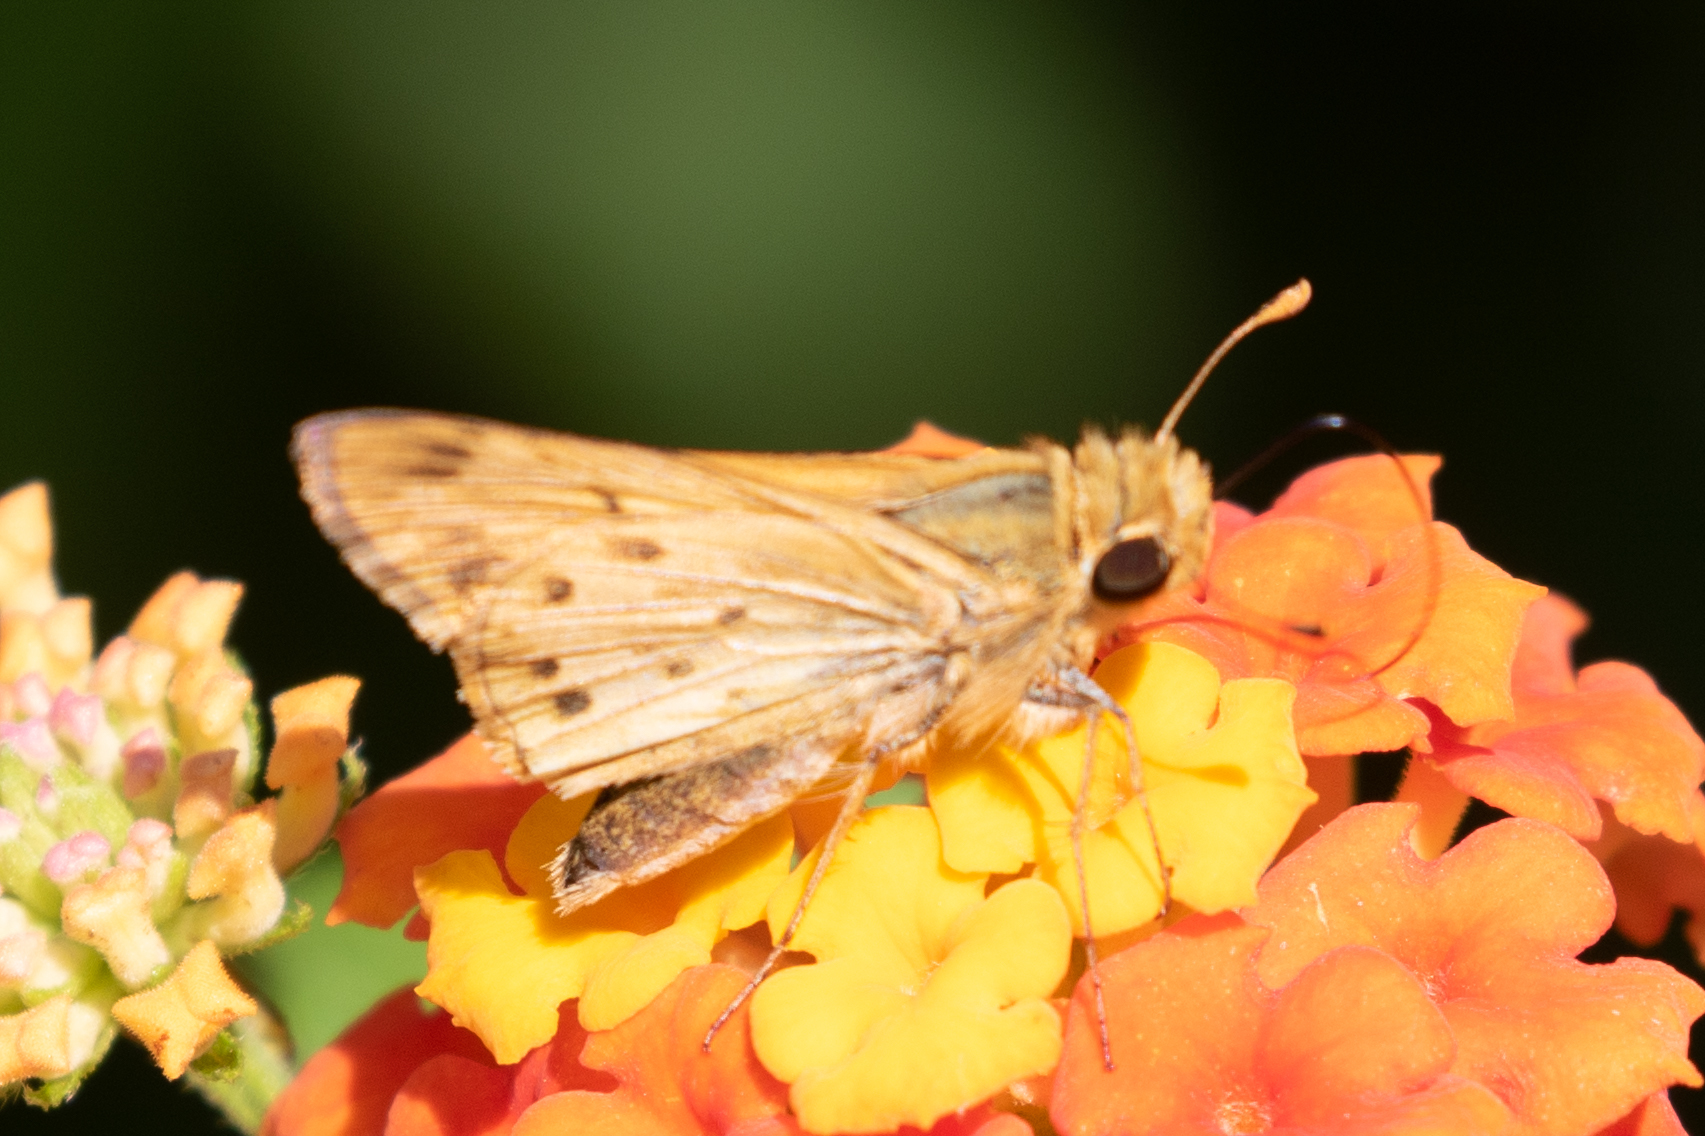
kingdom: Animalia
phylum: Arthropoda
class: Insecta
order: Lepidoptera
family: Hesperiidae
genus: Hylephila
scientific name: Hylephila phyleus
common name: Fiery skipper
